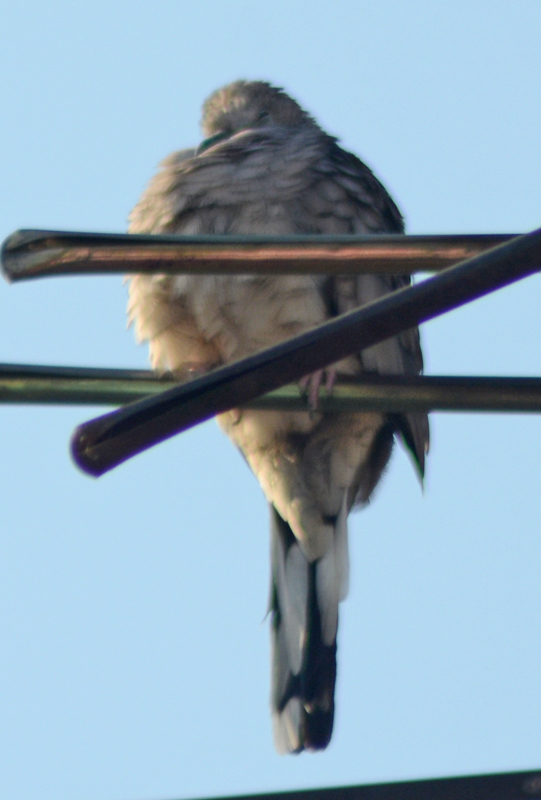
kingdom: Animalia
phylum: Chordata
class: Aves
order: Columbiformes
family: Columbidae
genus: Columbina
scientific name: Columbina inca
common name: Inca dove
